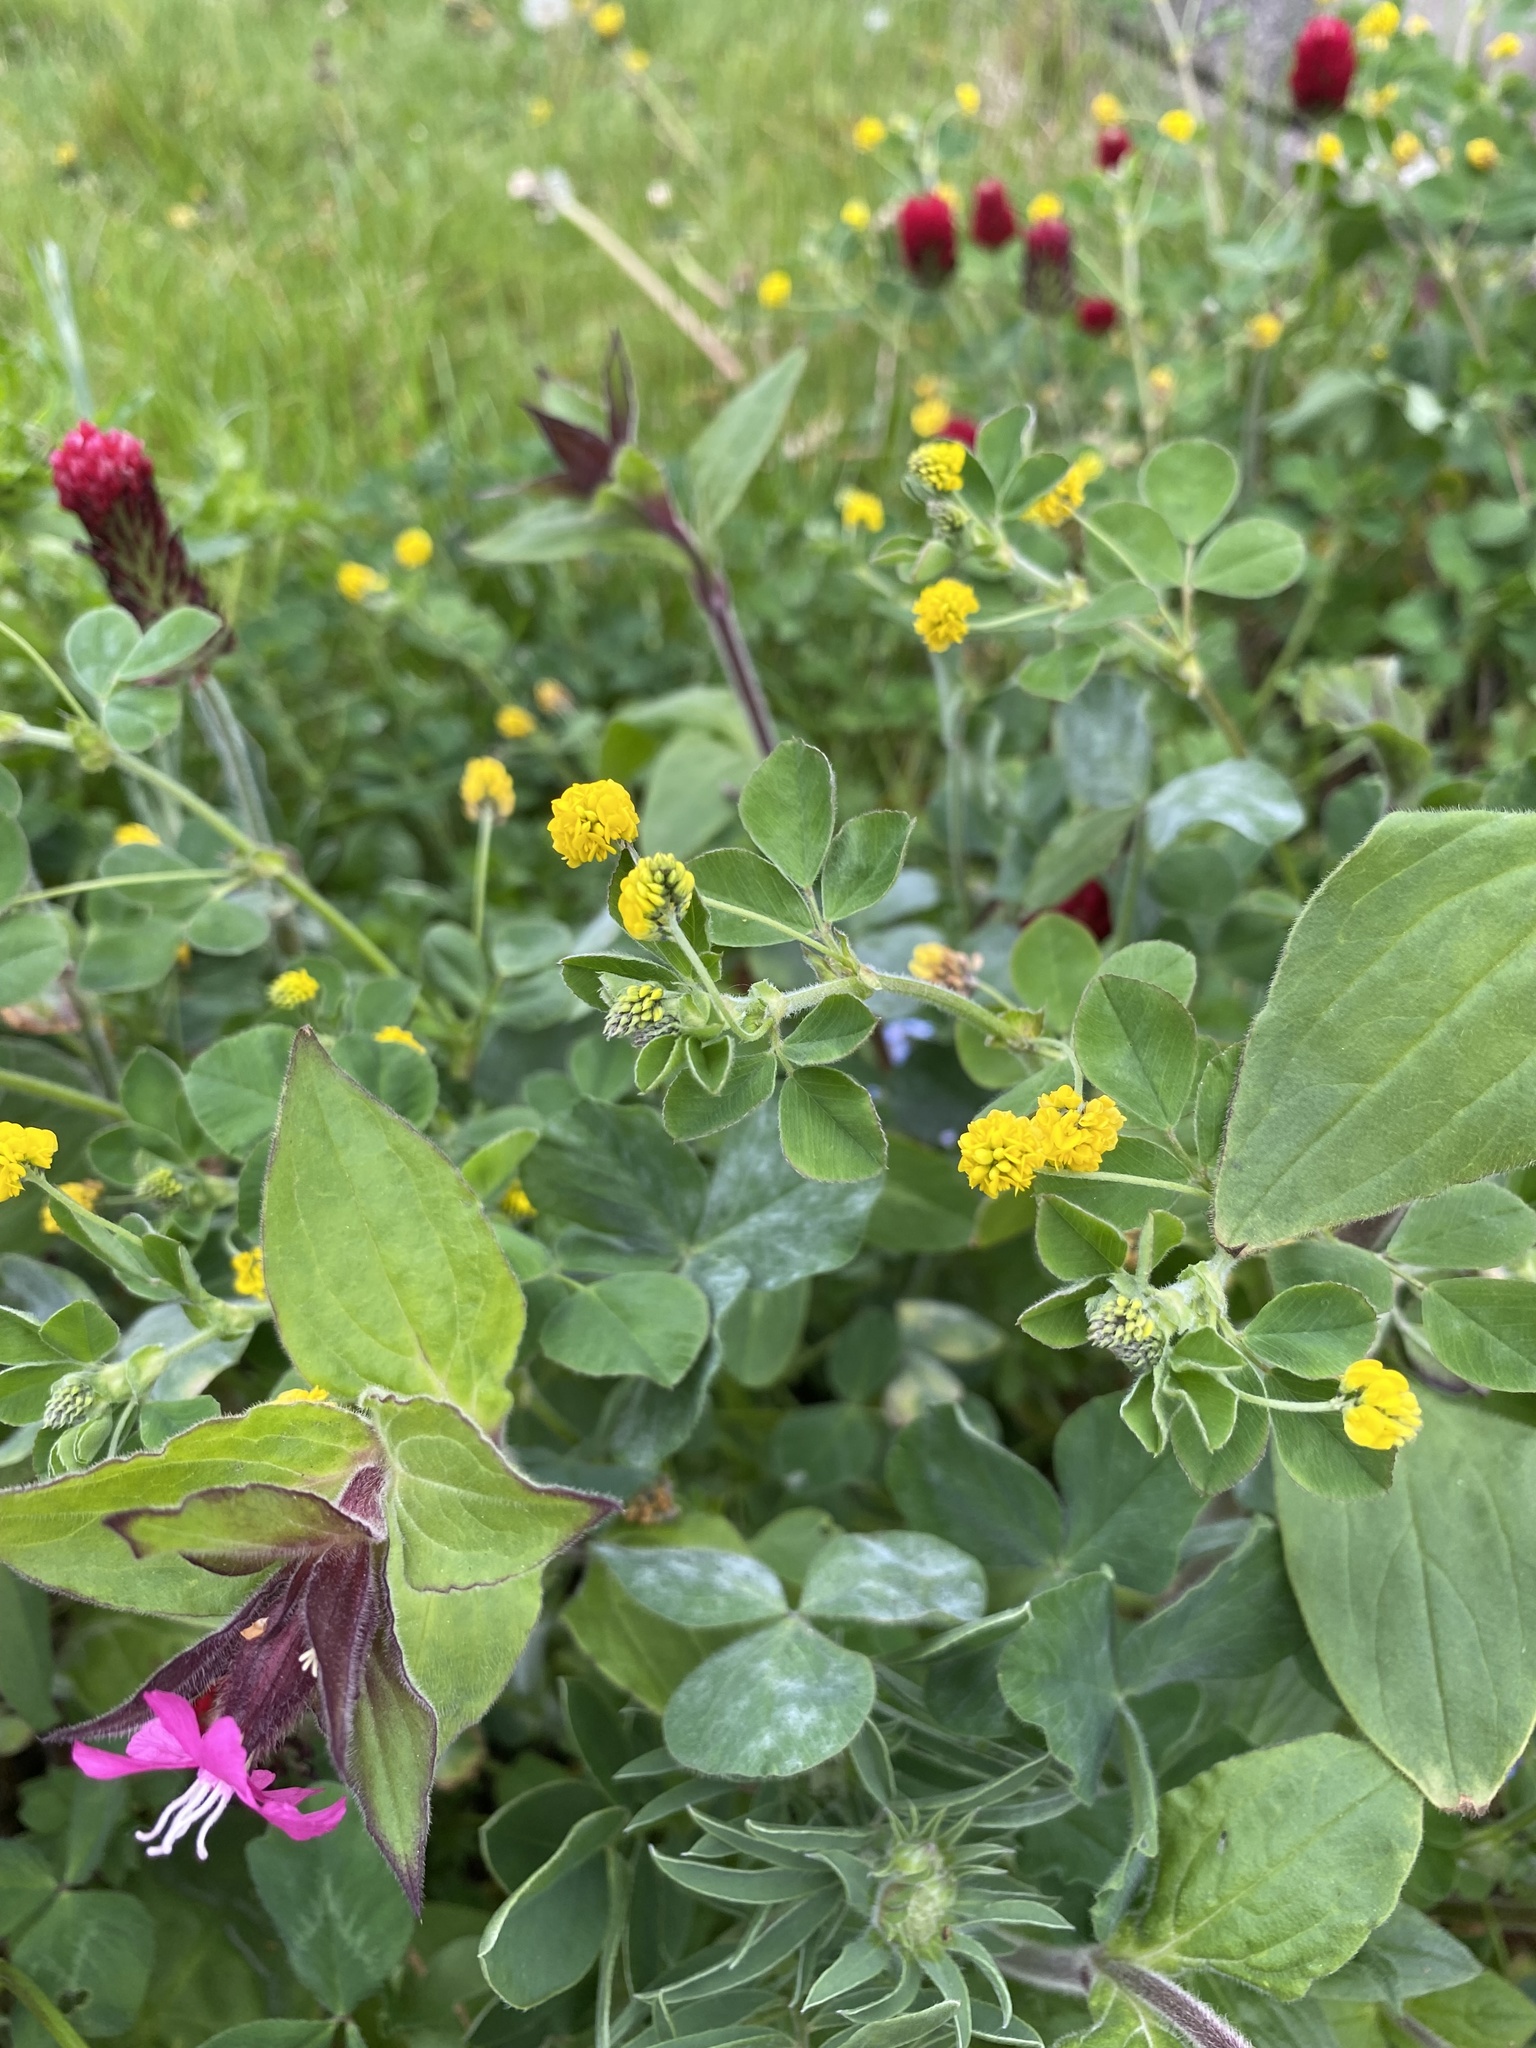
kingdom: Plantae
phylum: Tracheophyta
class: Magnoliopsida
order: Fabales
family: Fabaceae
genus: Medicago
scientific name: Medicago lupulina
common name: Black medick
